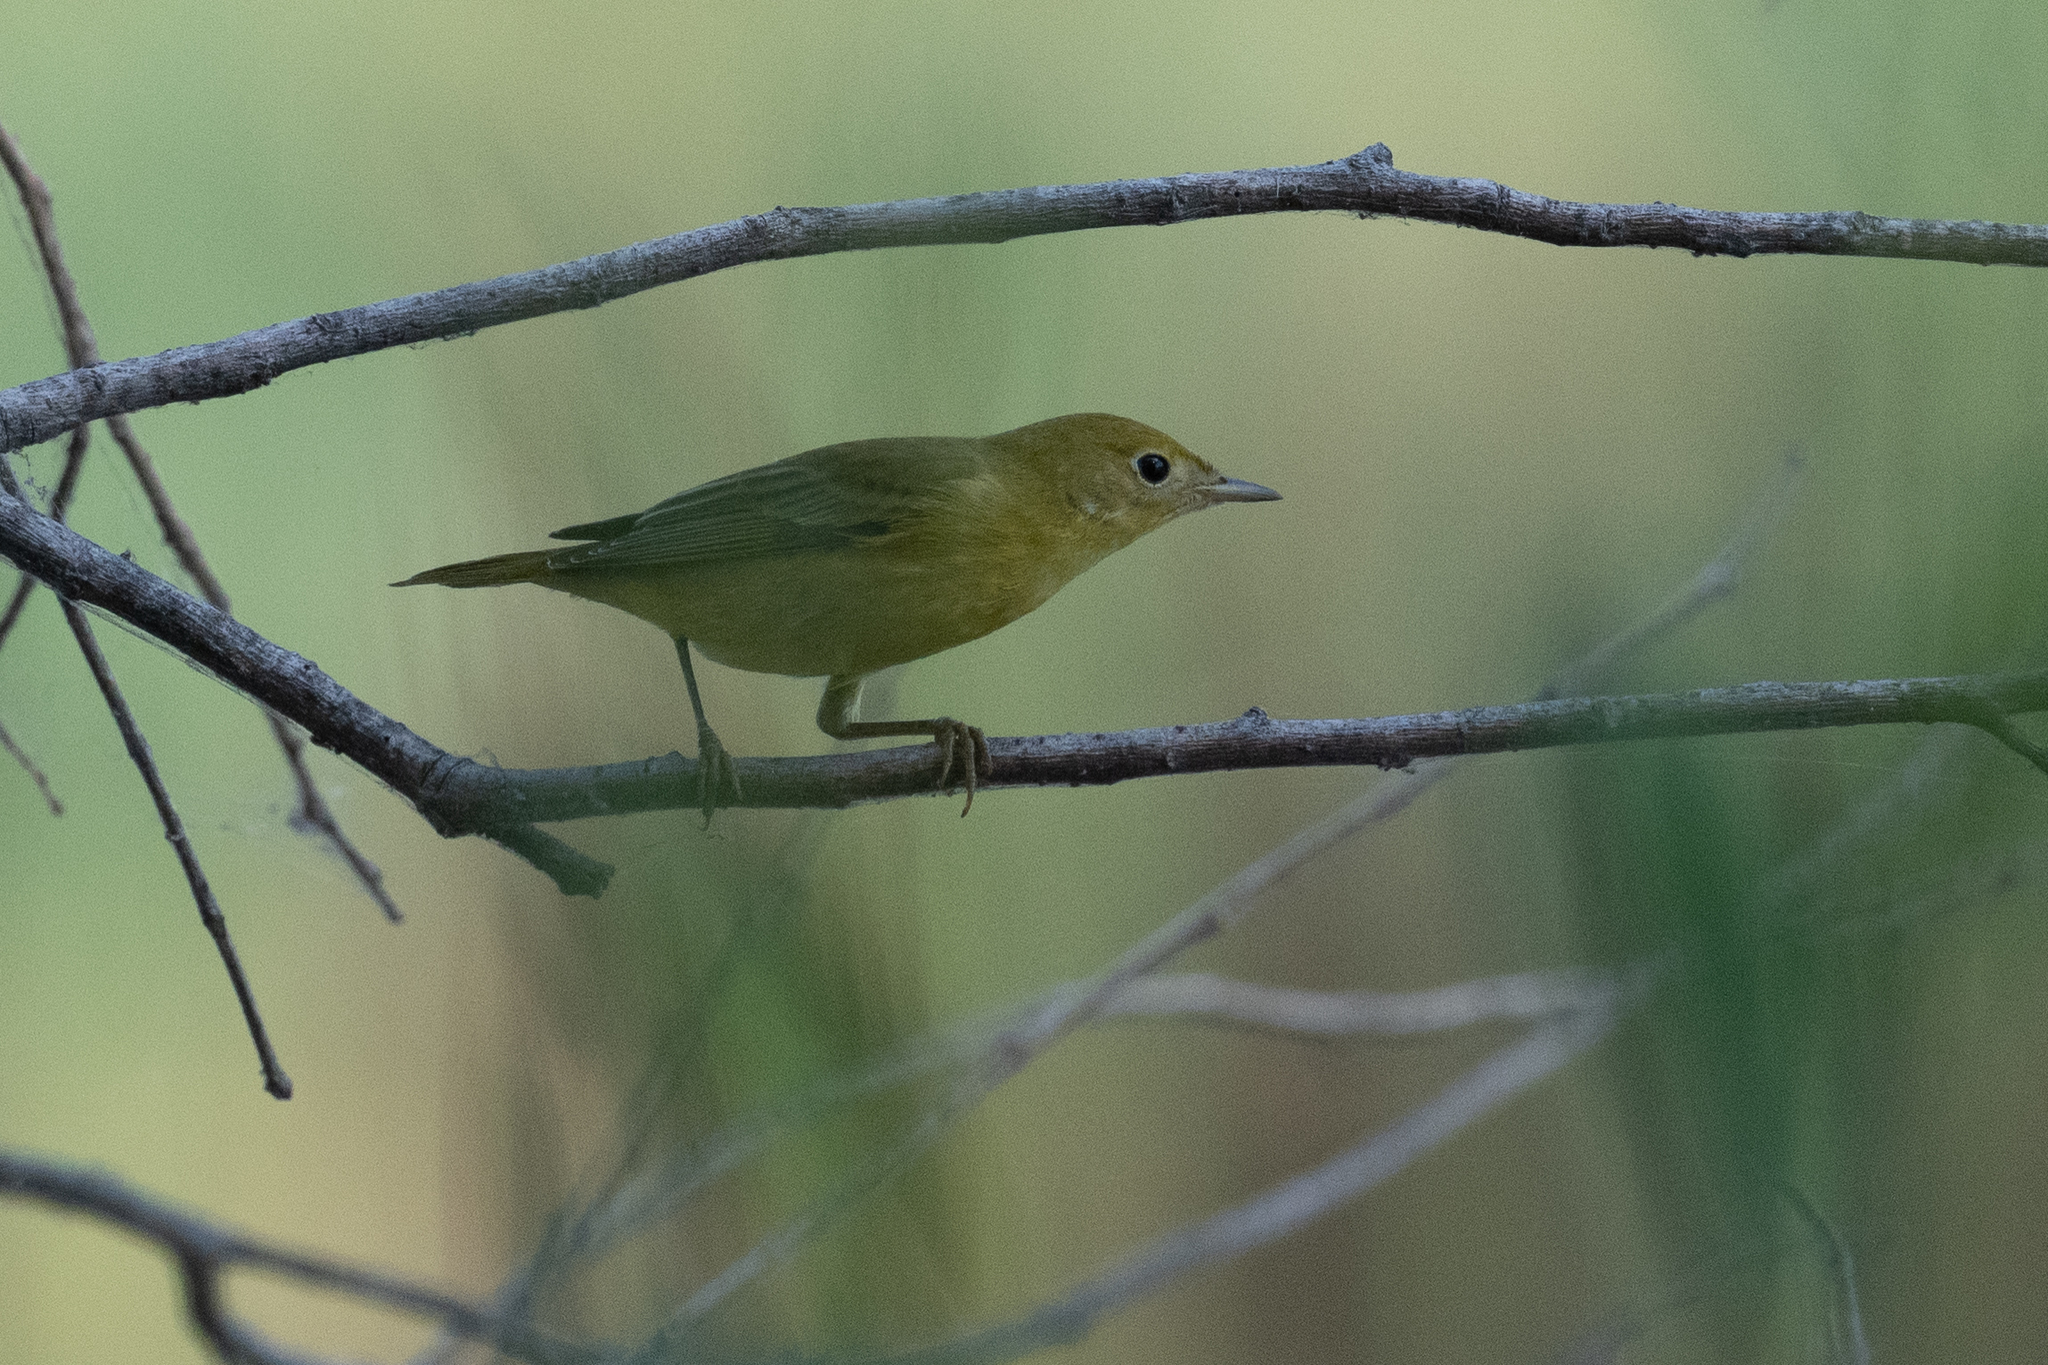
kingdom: Animalia
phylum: Chordata
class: Aves
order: Passeriformes
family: Parulidae
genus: Setophaga
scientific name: Setophaga petechia
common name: Yellow warbler
